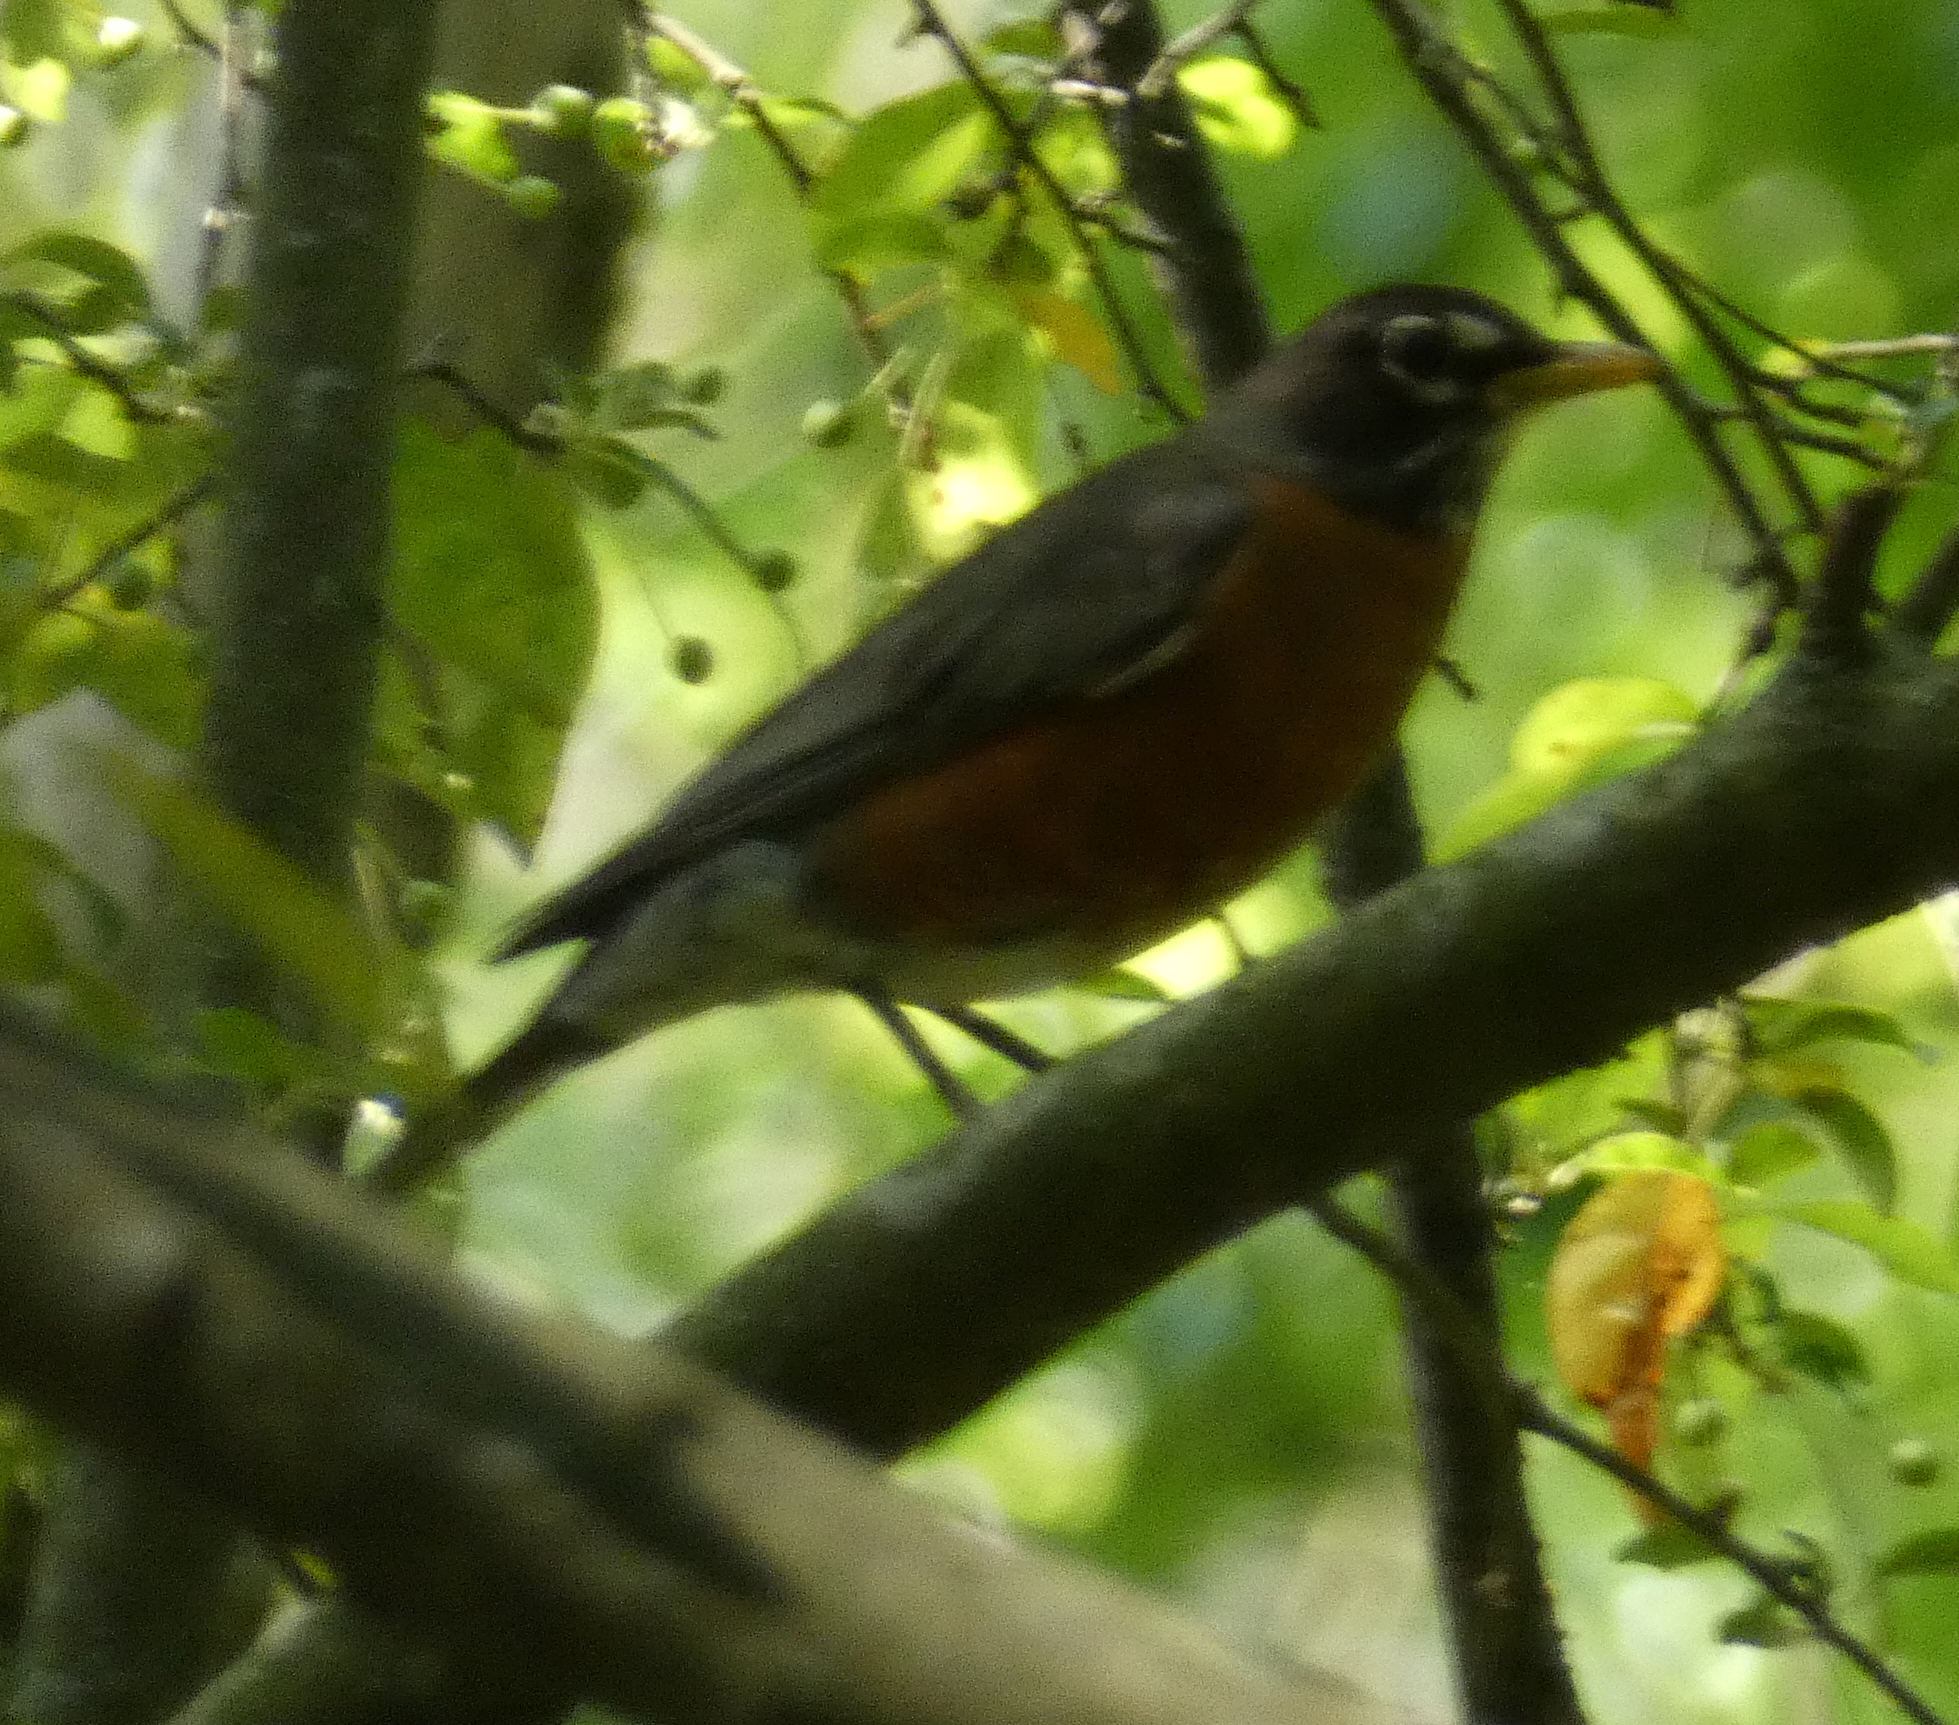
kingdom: Animalia
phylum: Chordata
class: Aves
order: Passeriformes
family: Turdidae
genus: Turdus
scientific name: Turdus migratorius
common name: American robin
